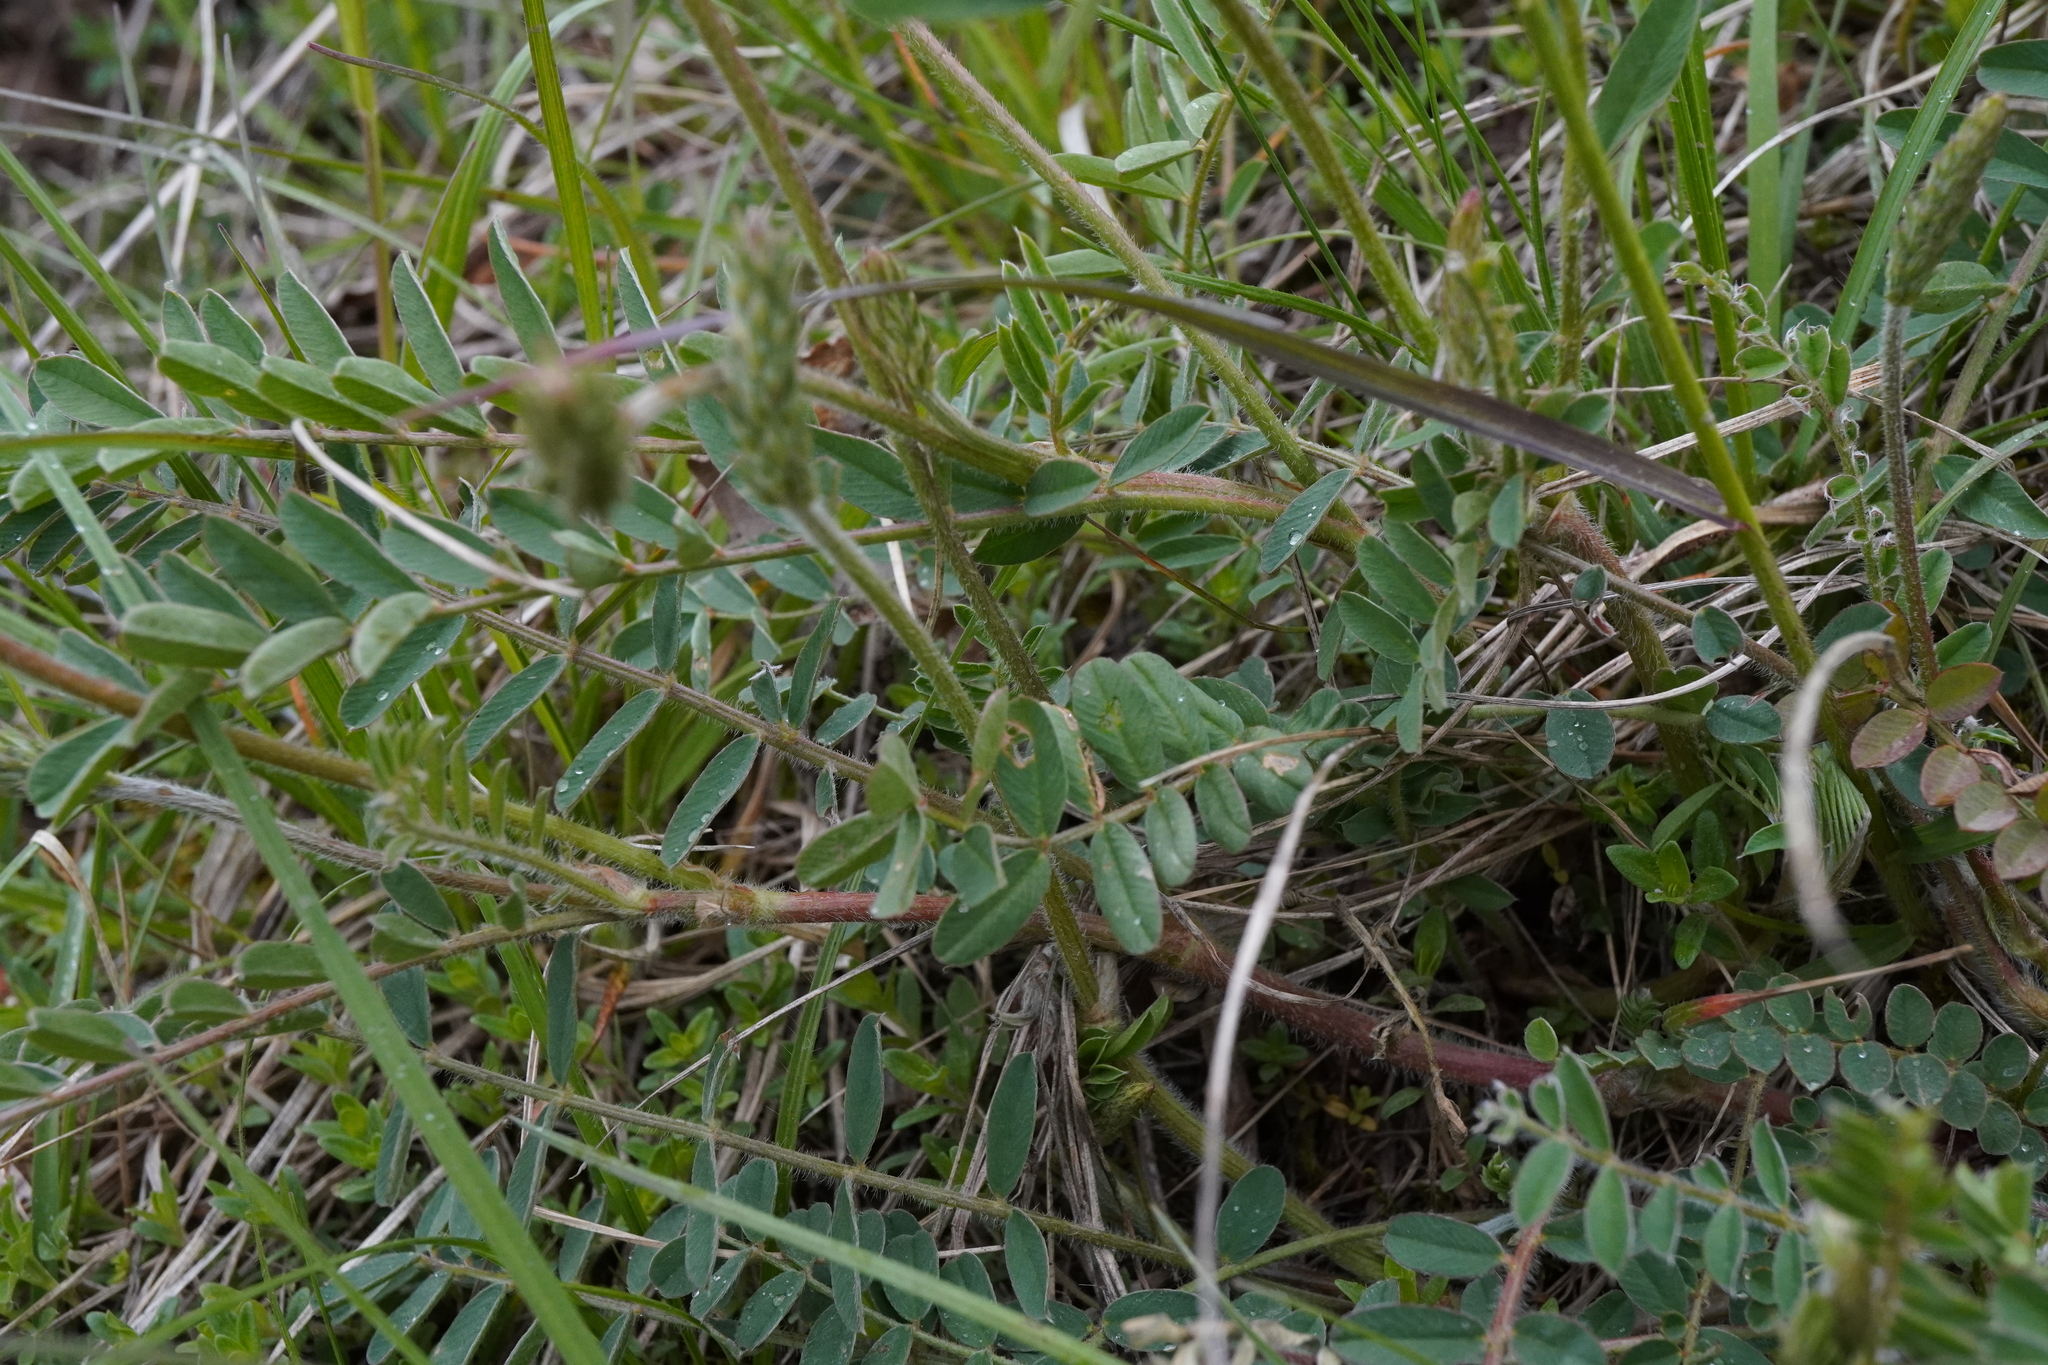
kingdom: Plantae
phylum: Tracheophyta
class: Magnoliopsida
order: Fabales
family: Fabaceae
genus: Onobrychis
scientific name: Onobrychis viciifolia
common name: Sainfoin
